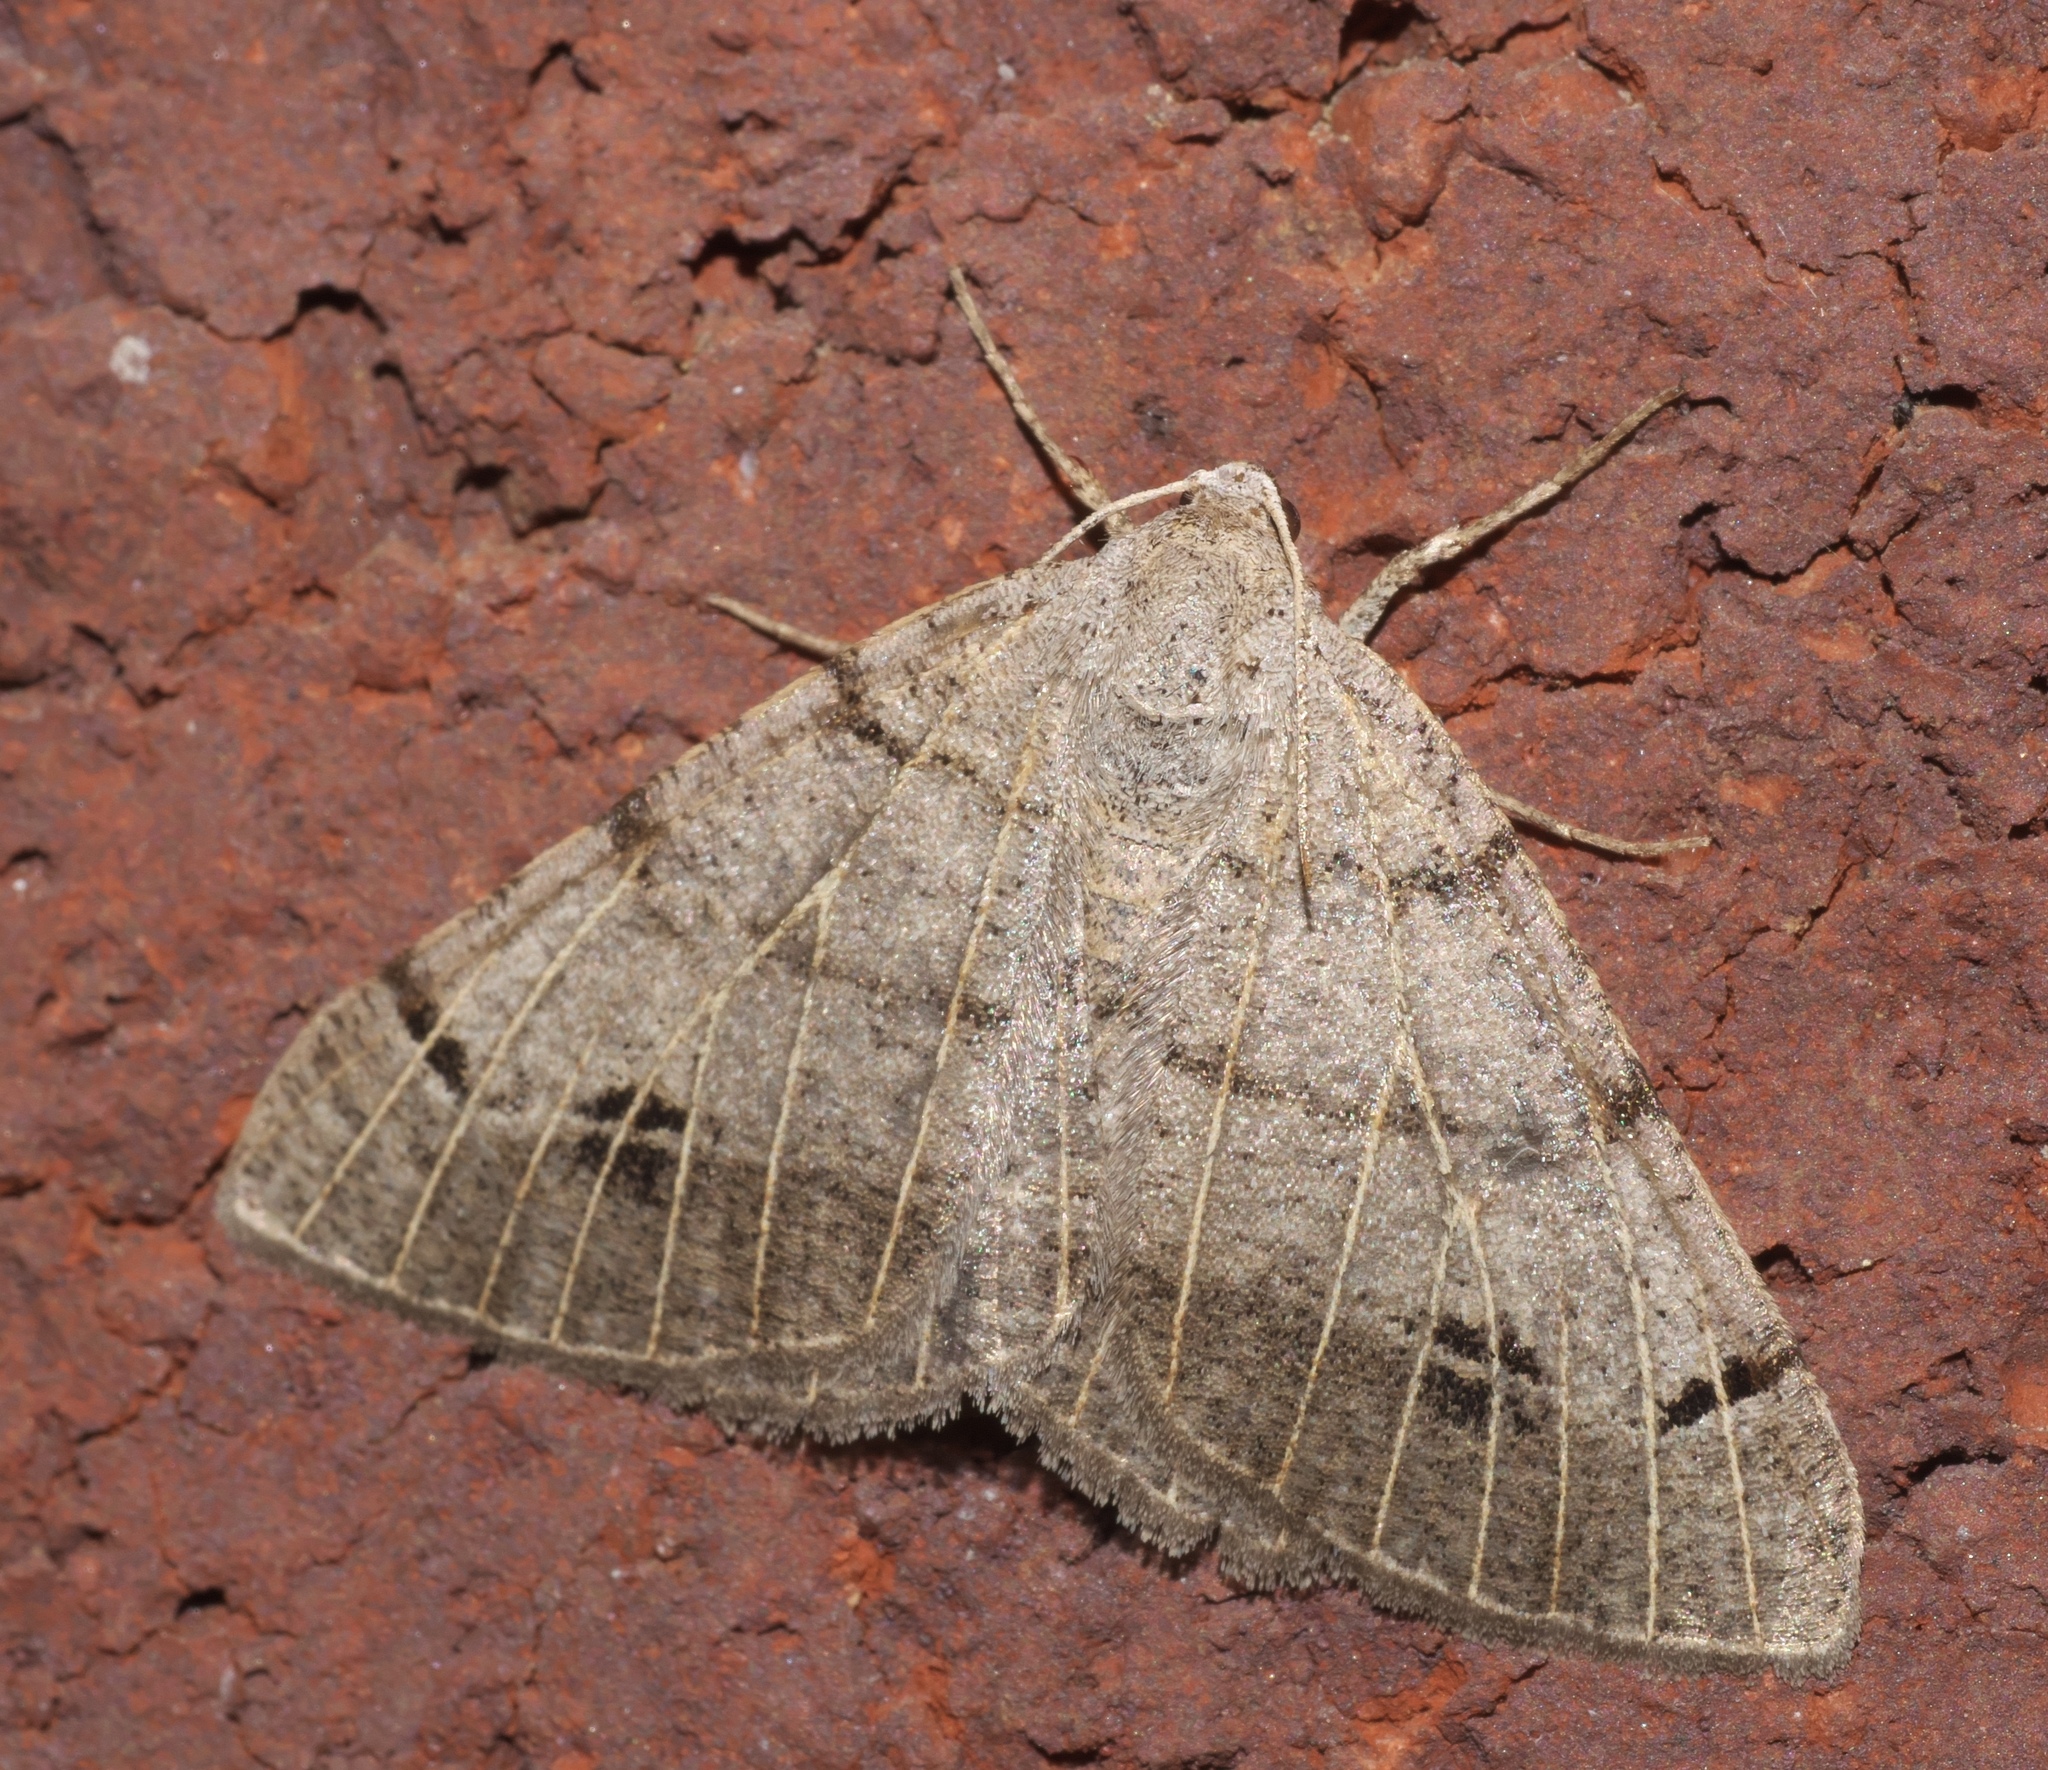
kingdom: Animalia
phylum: Arthropoda
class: Insecta
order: Lepidoptera
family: Geometridae
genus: Isturgia
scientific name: Isturgia dislocaria
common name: Pale-viened enconista
